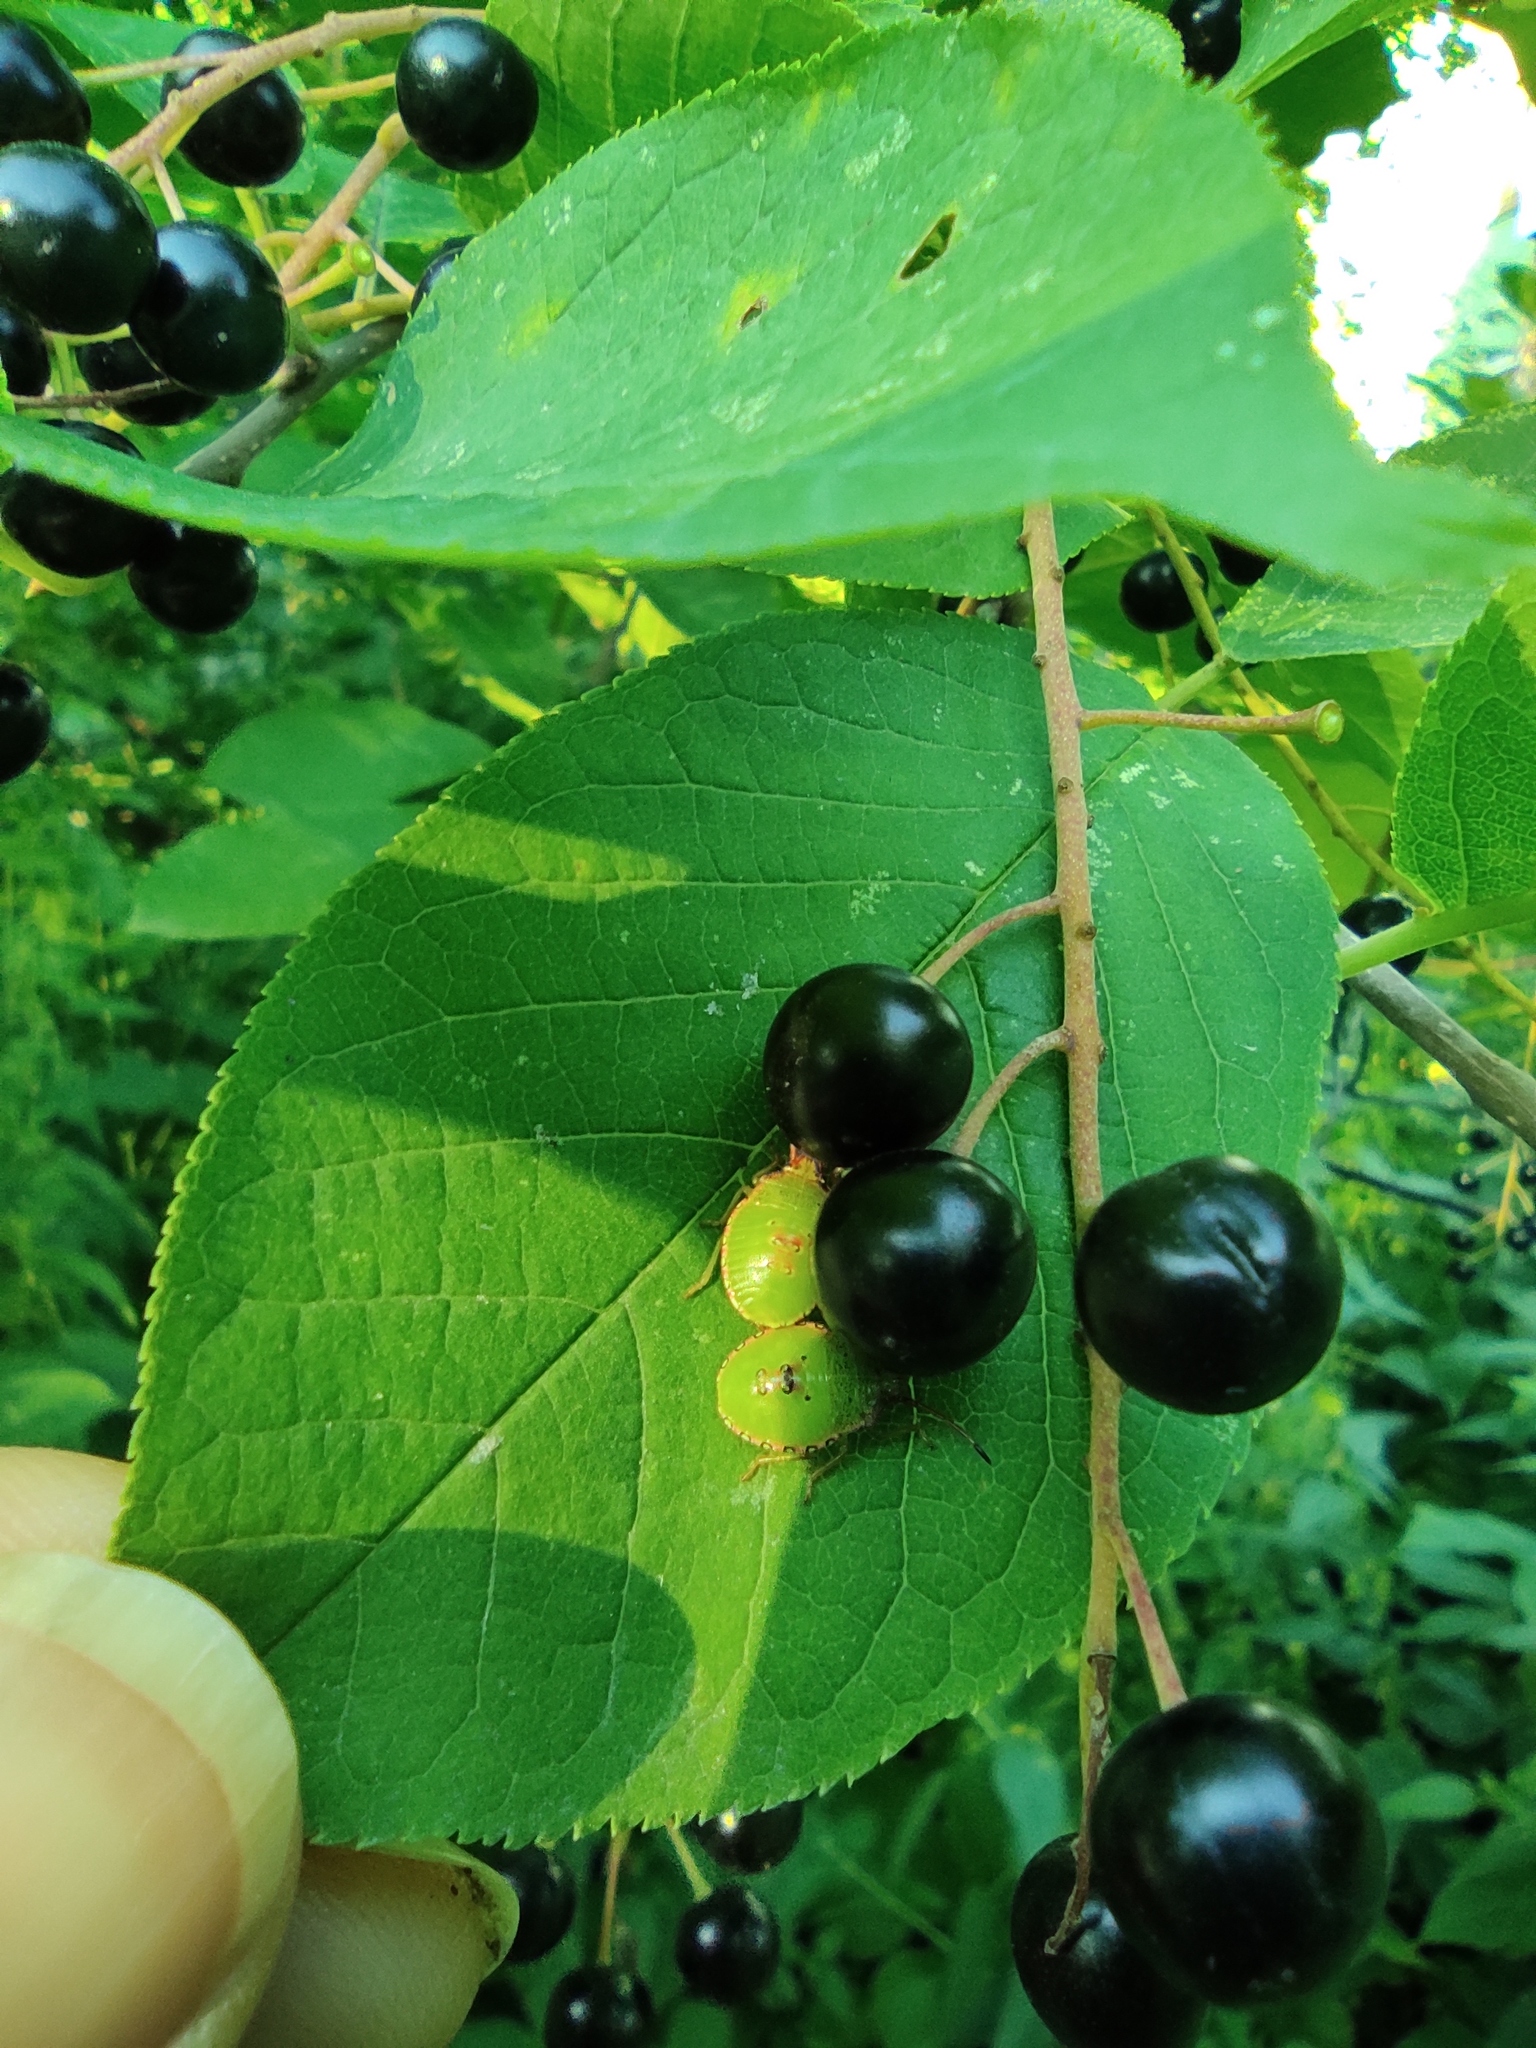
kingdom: Plantae
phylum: Tracheophyta
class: Magnoliopsida
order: Rosales
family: Rosaceae
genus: Prunus
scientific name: Prunus padus
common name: Bird cherry
